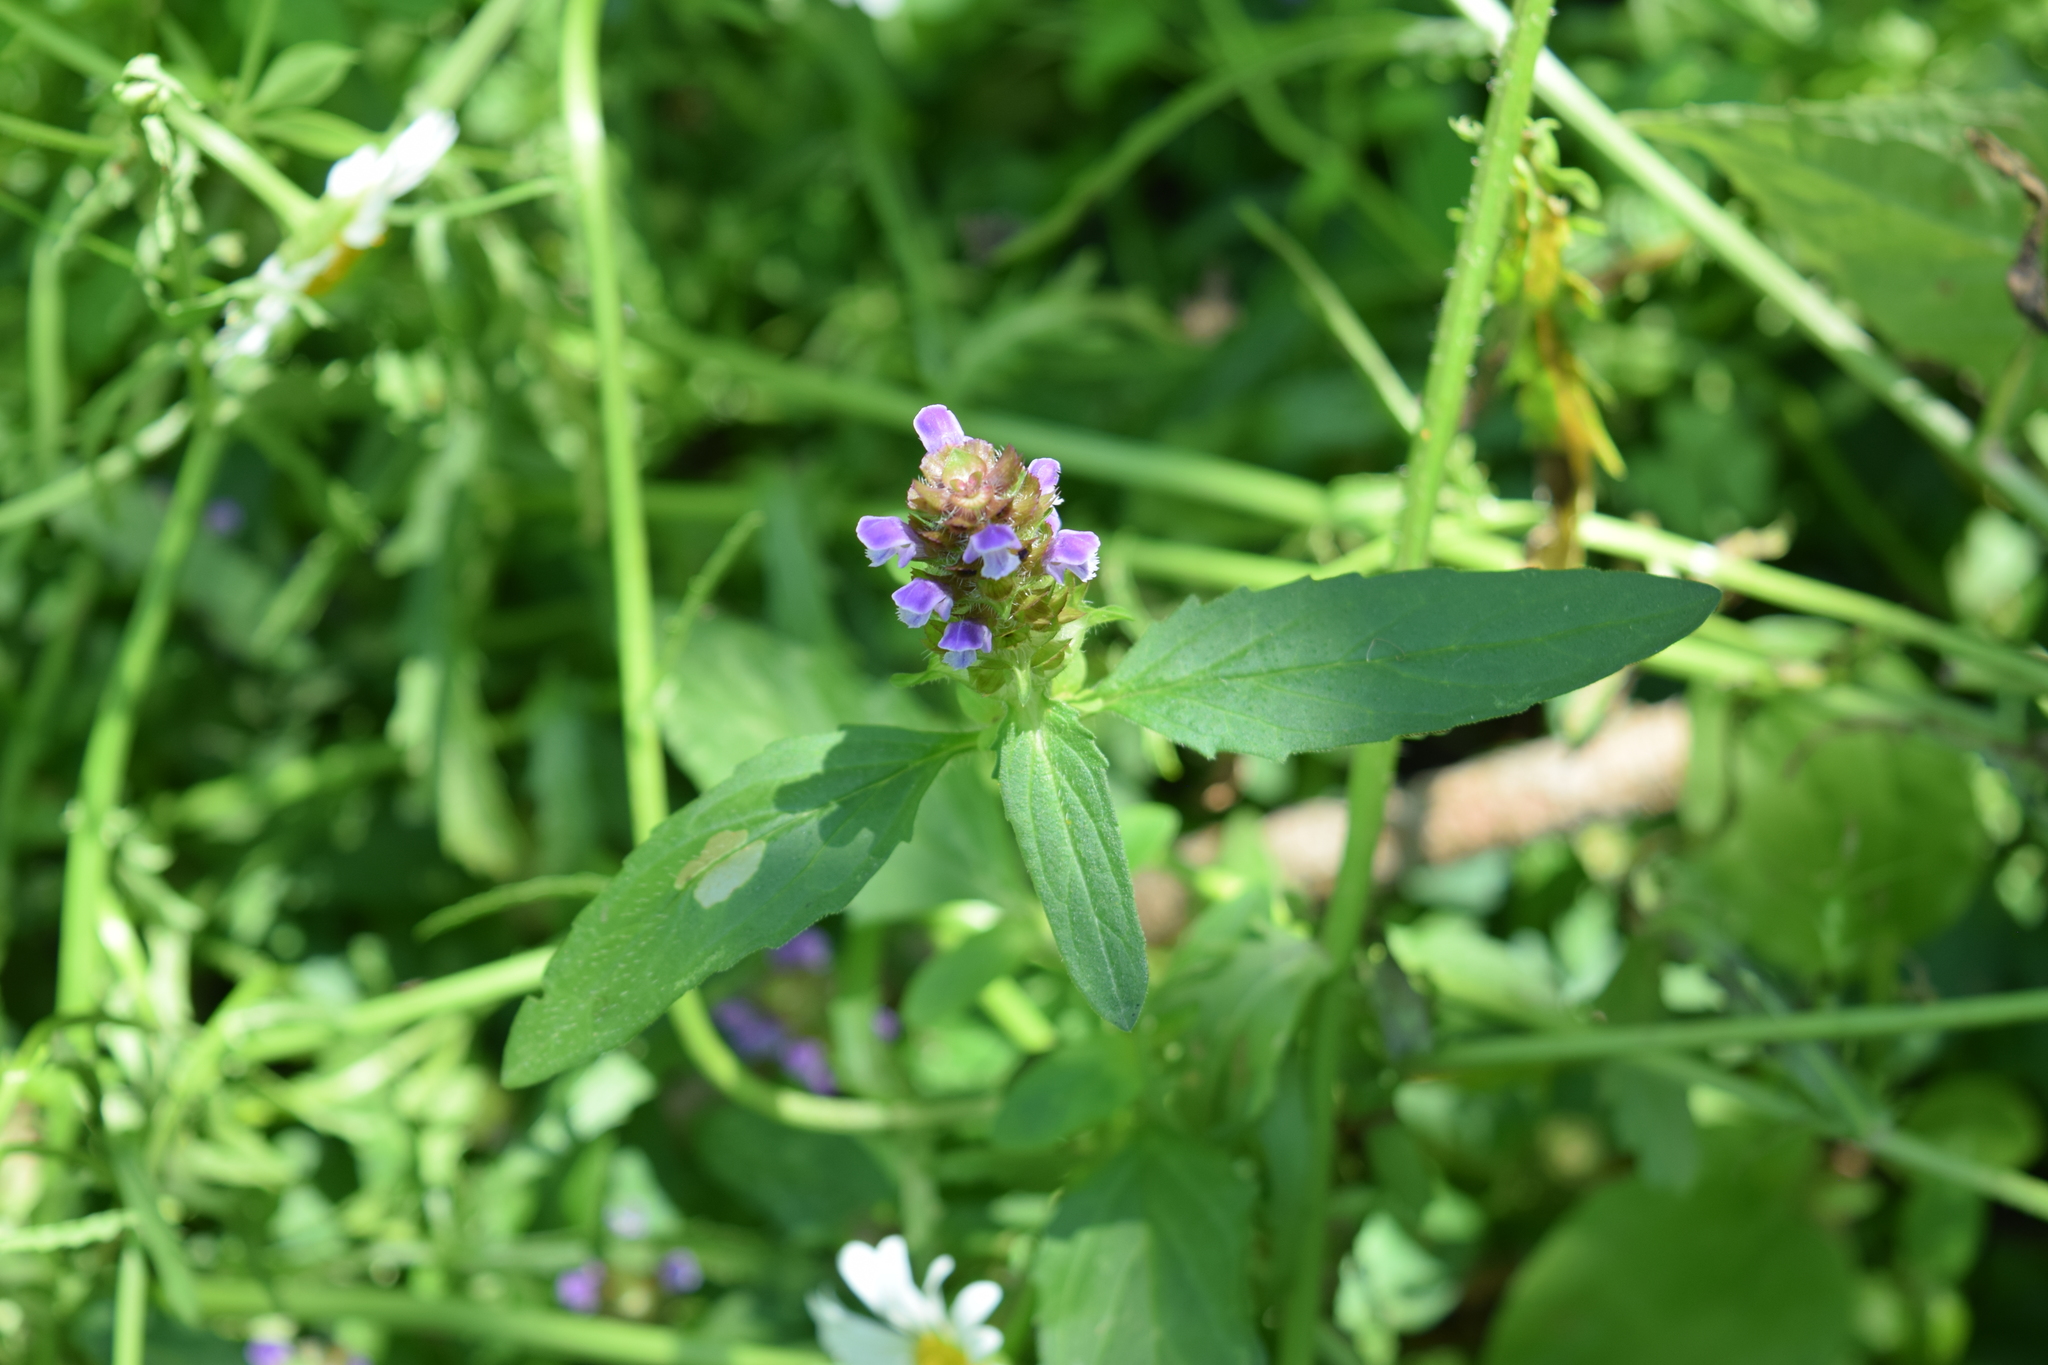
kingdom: Plantae
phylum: Tracheophyta
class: Magnoliopsida
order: Lamiales
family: Lamiaceae
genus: Prunella
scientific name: Prunella vulgaris
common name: Heal-all
